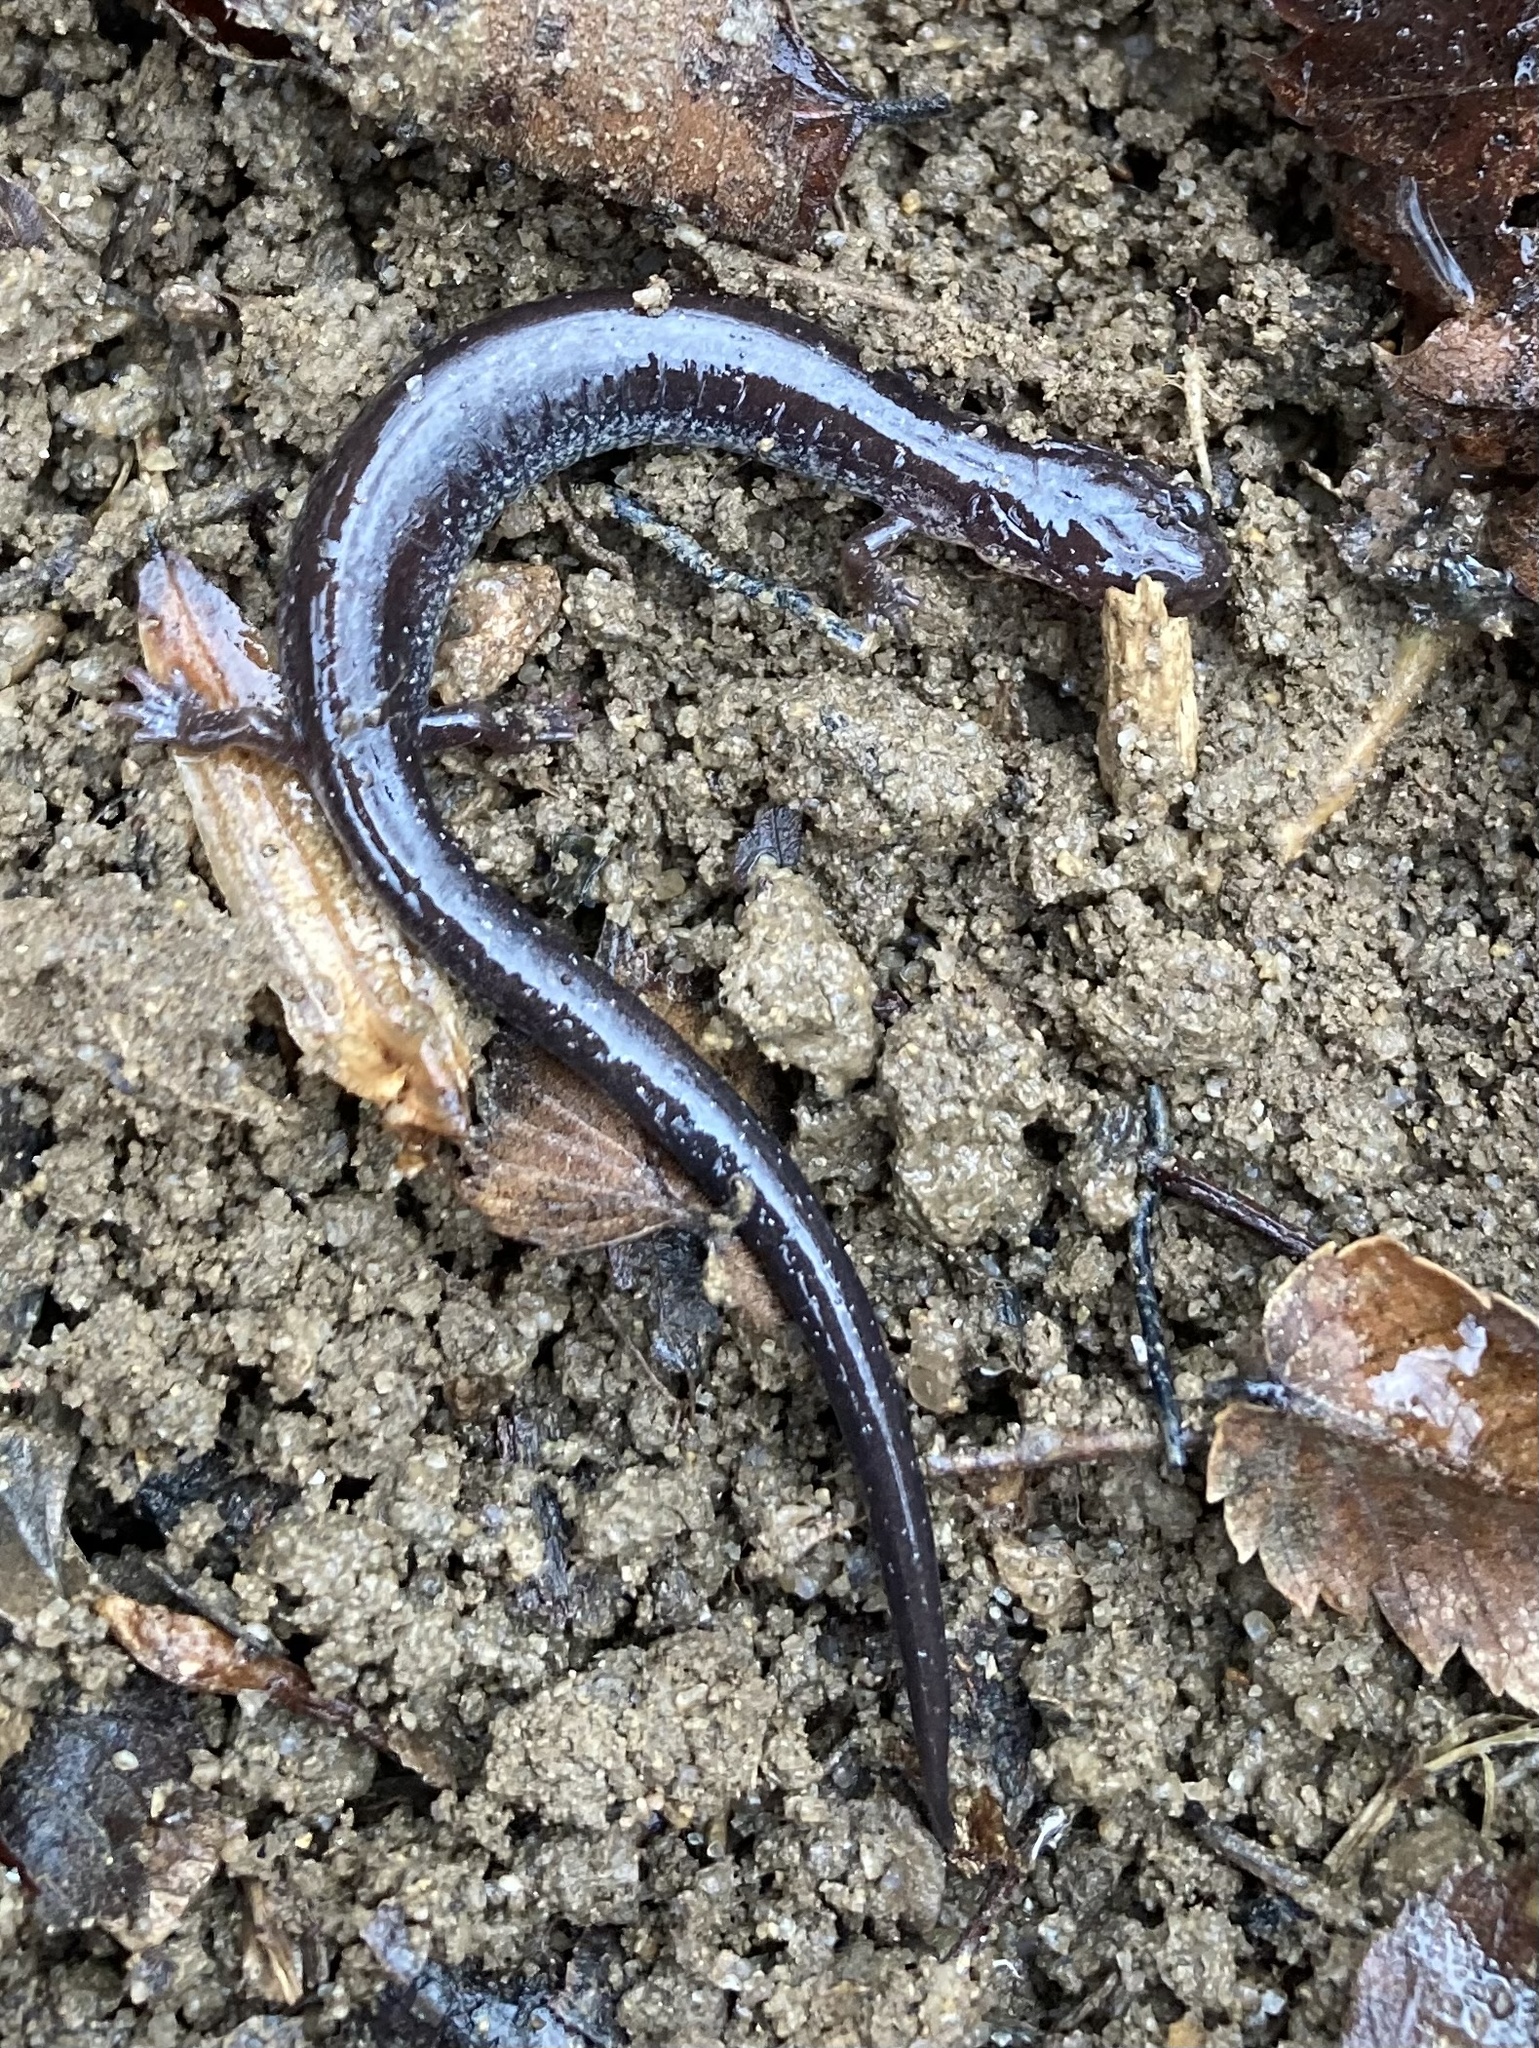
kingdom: Animalia
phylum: Chordata
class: Amphibia
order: Caudata
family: Plethodontidae
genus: Plethodon
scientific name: Plethodon cinereus
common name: Redback salamander
